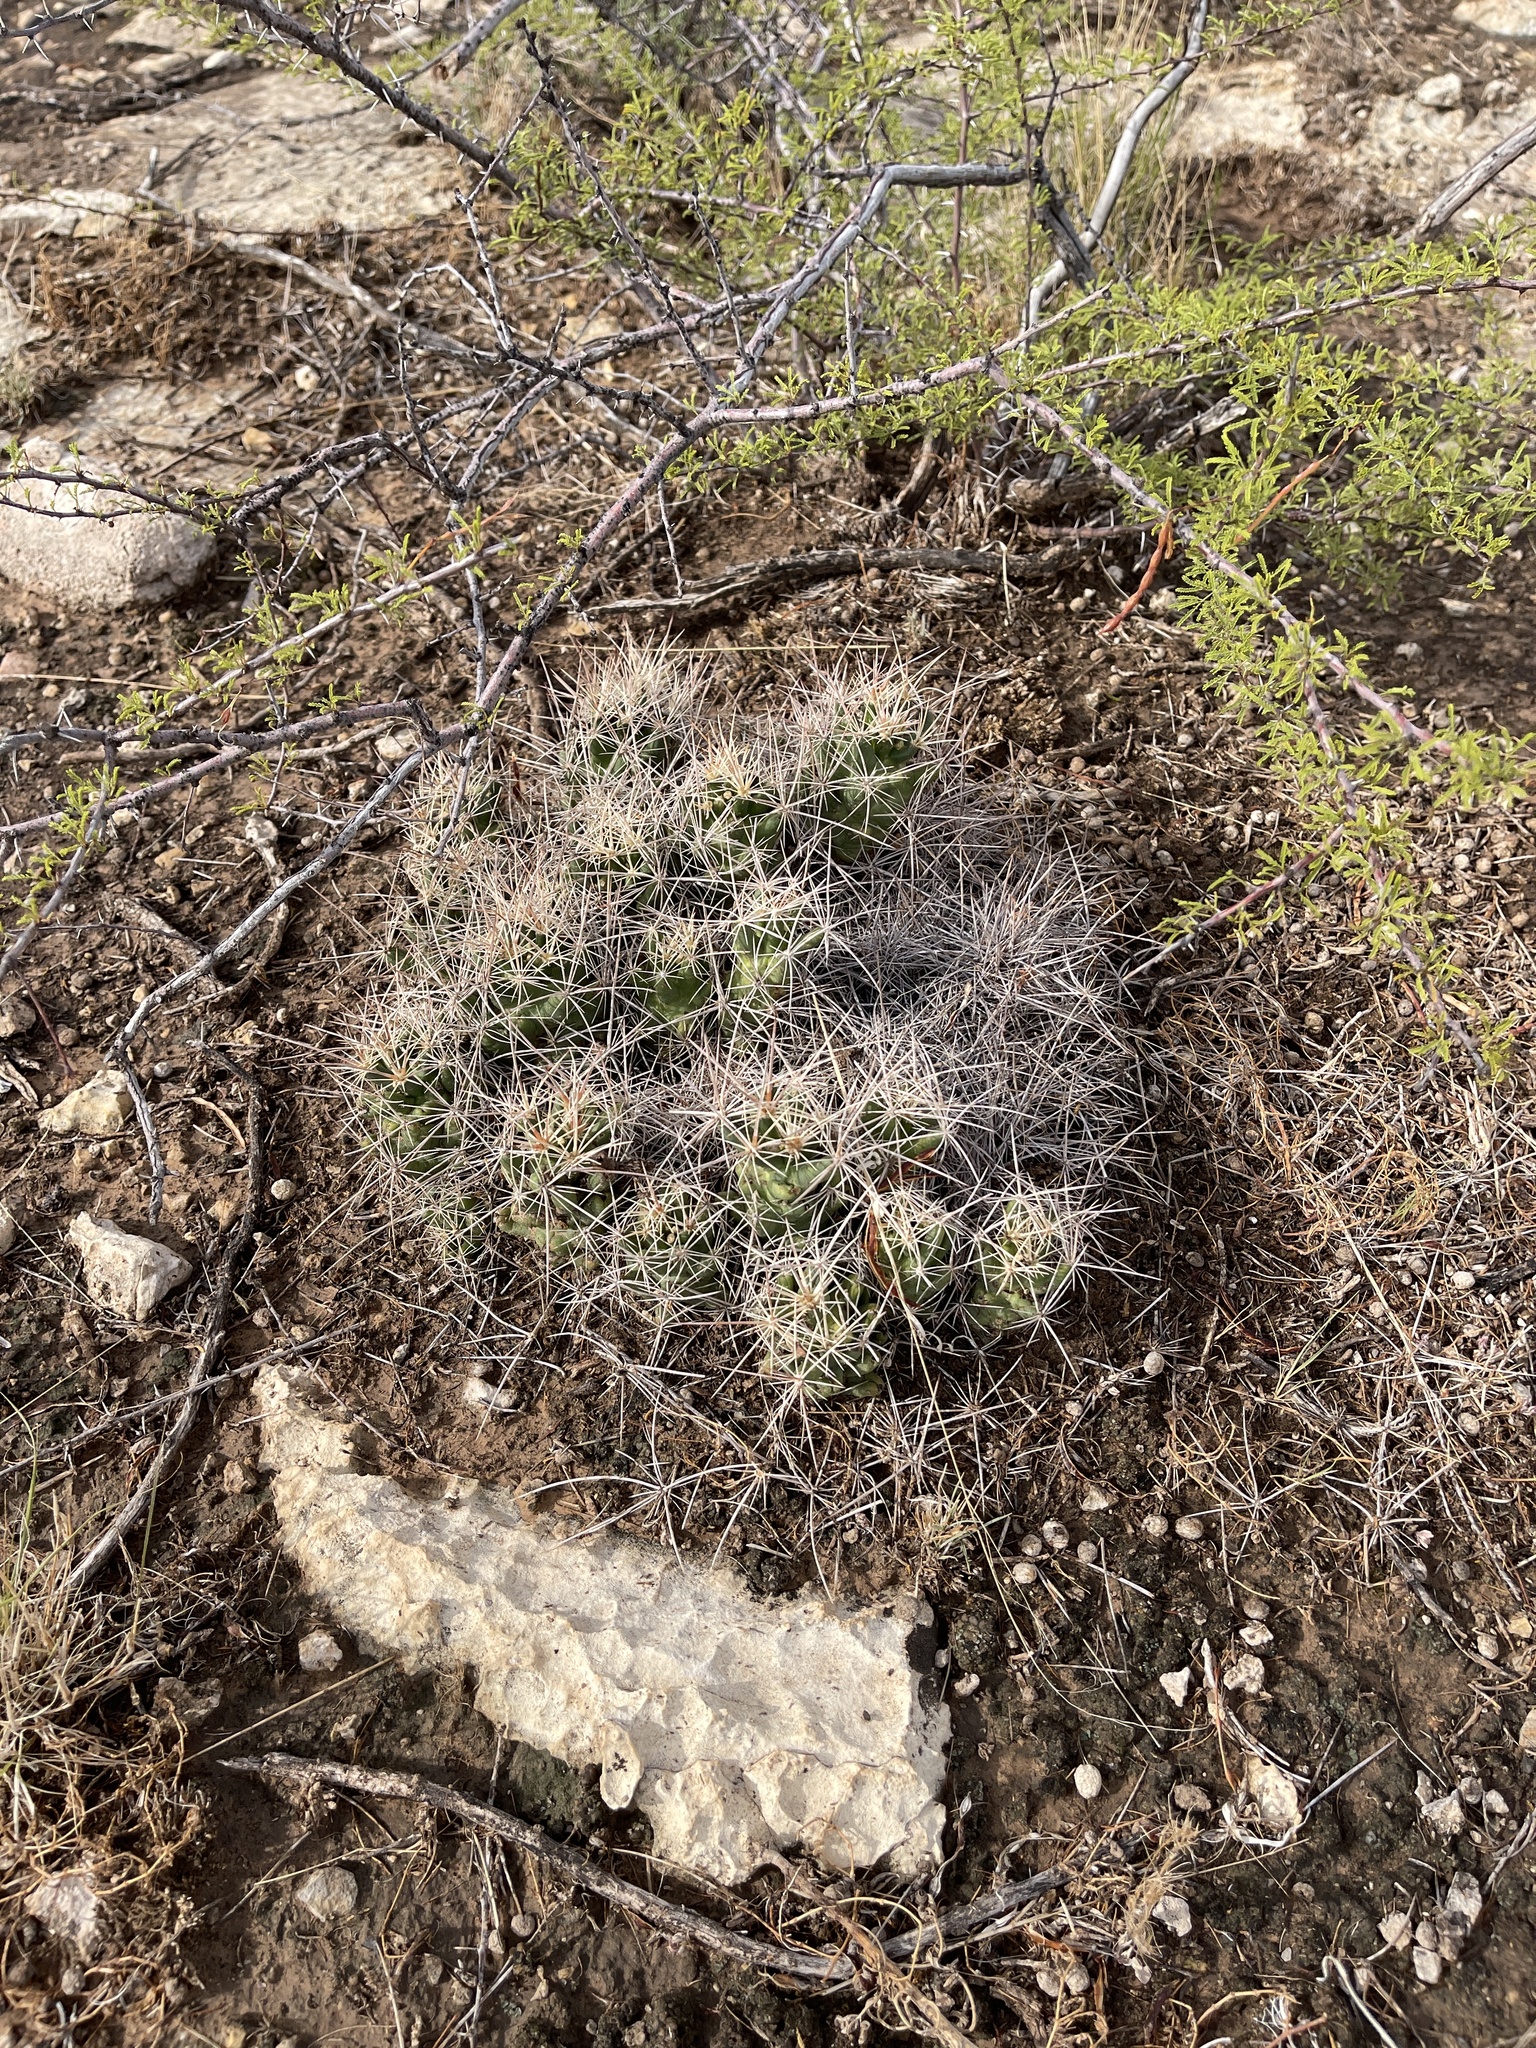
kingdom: Plantae
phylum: Tracheophyta
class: Magnoliopsida
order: Caryophyllales
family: Cactaceae
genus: Coryphantha
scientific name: Coryphantha macromeris
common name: Nipple beehive cactus
